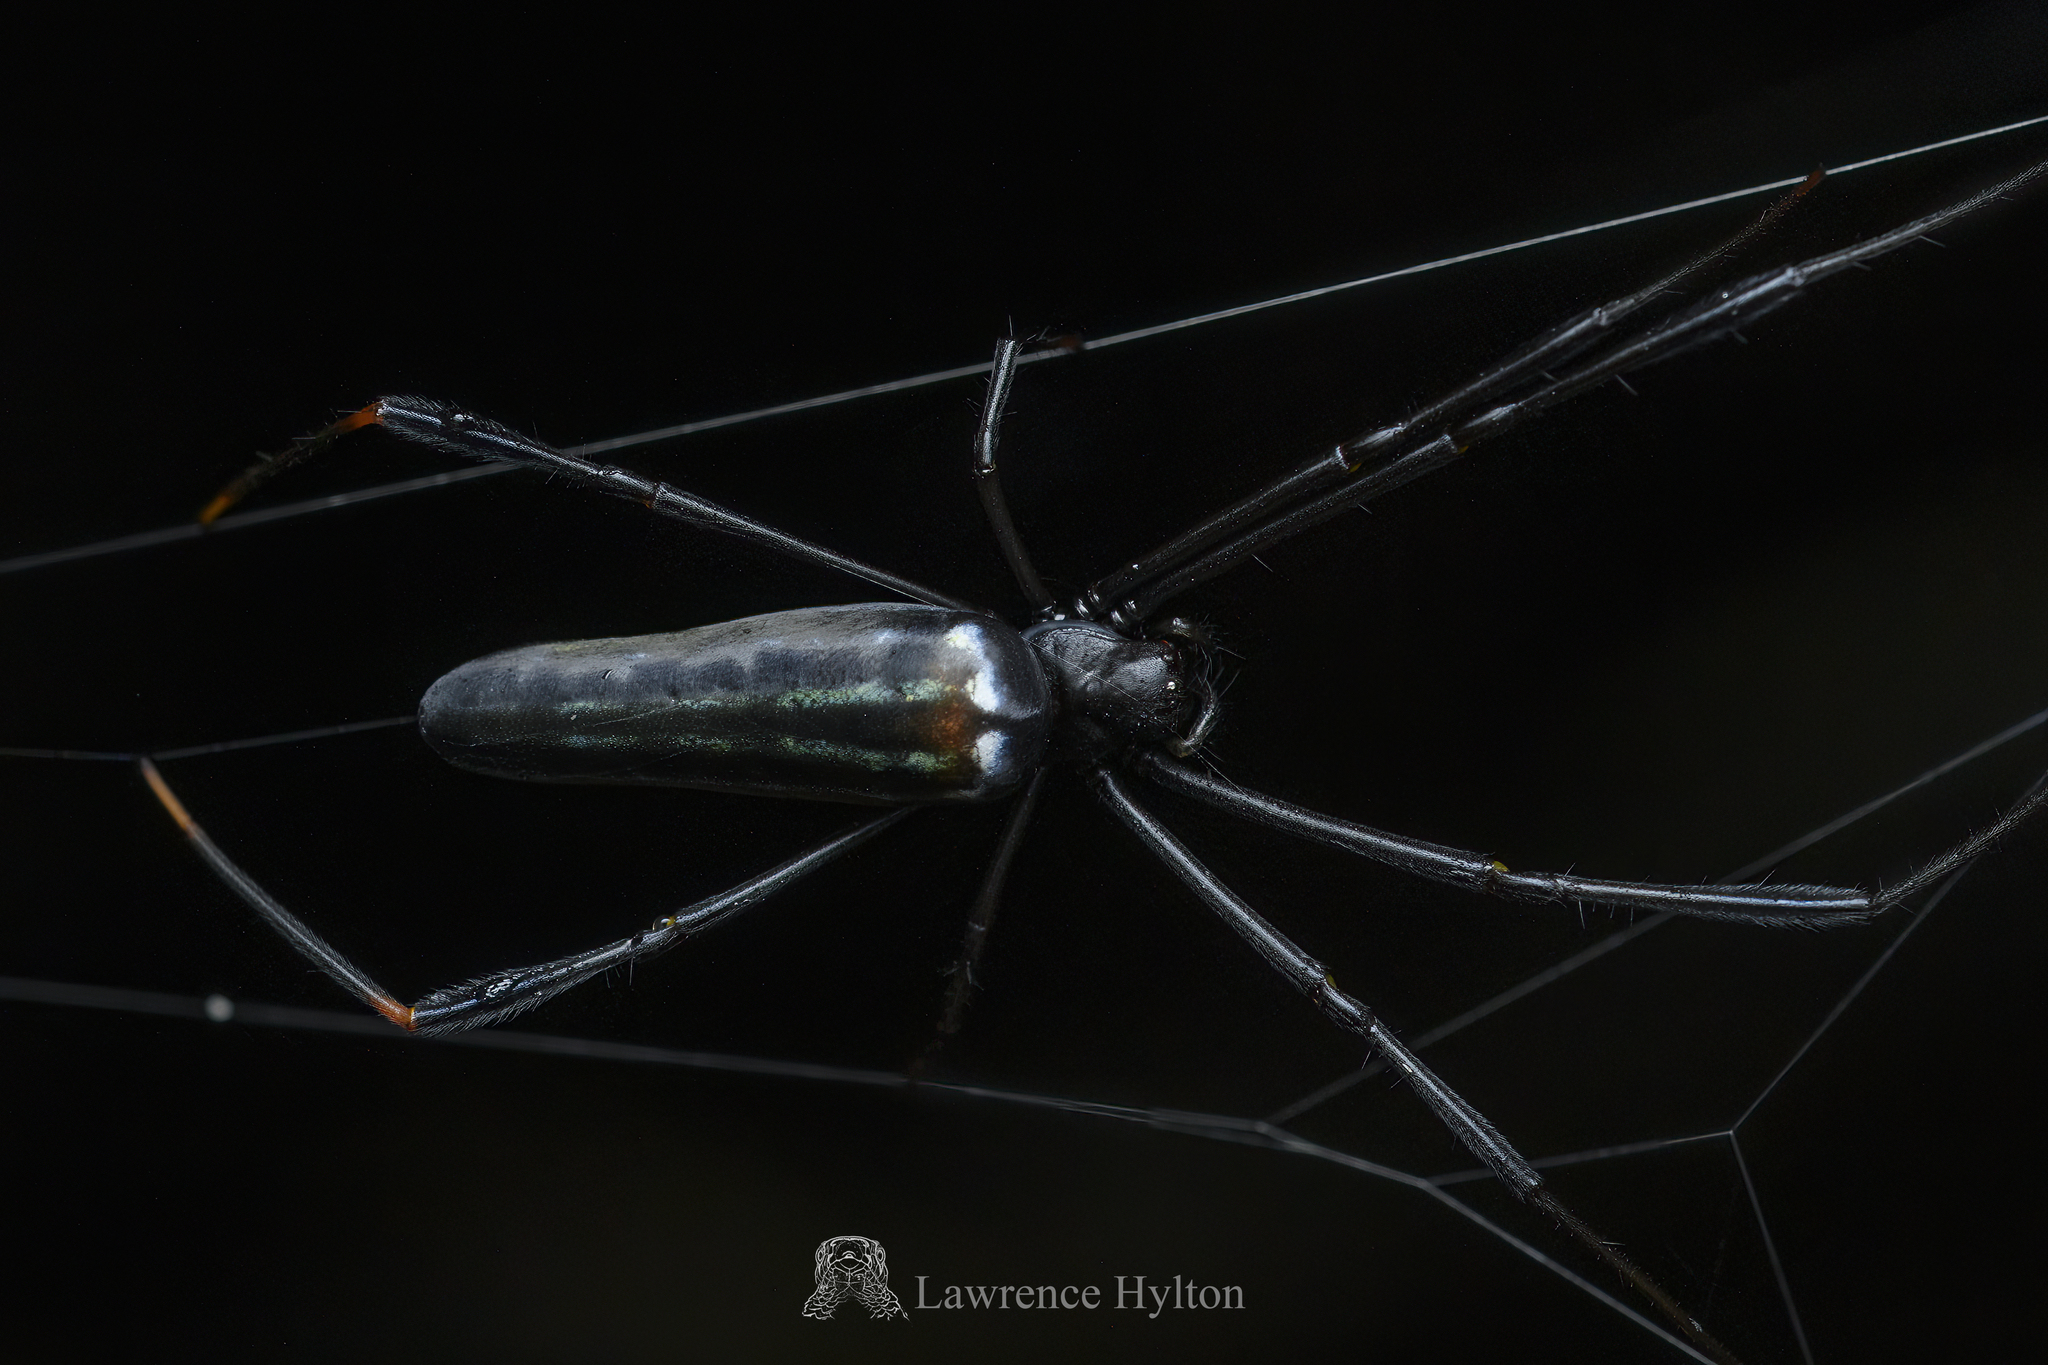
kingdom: Animalia
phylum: Arthropoda
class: Arachnida
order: Araneae
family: Araneidae
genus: Nephila
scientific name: Nephila pilipes
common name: Giant golden orb weaver
